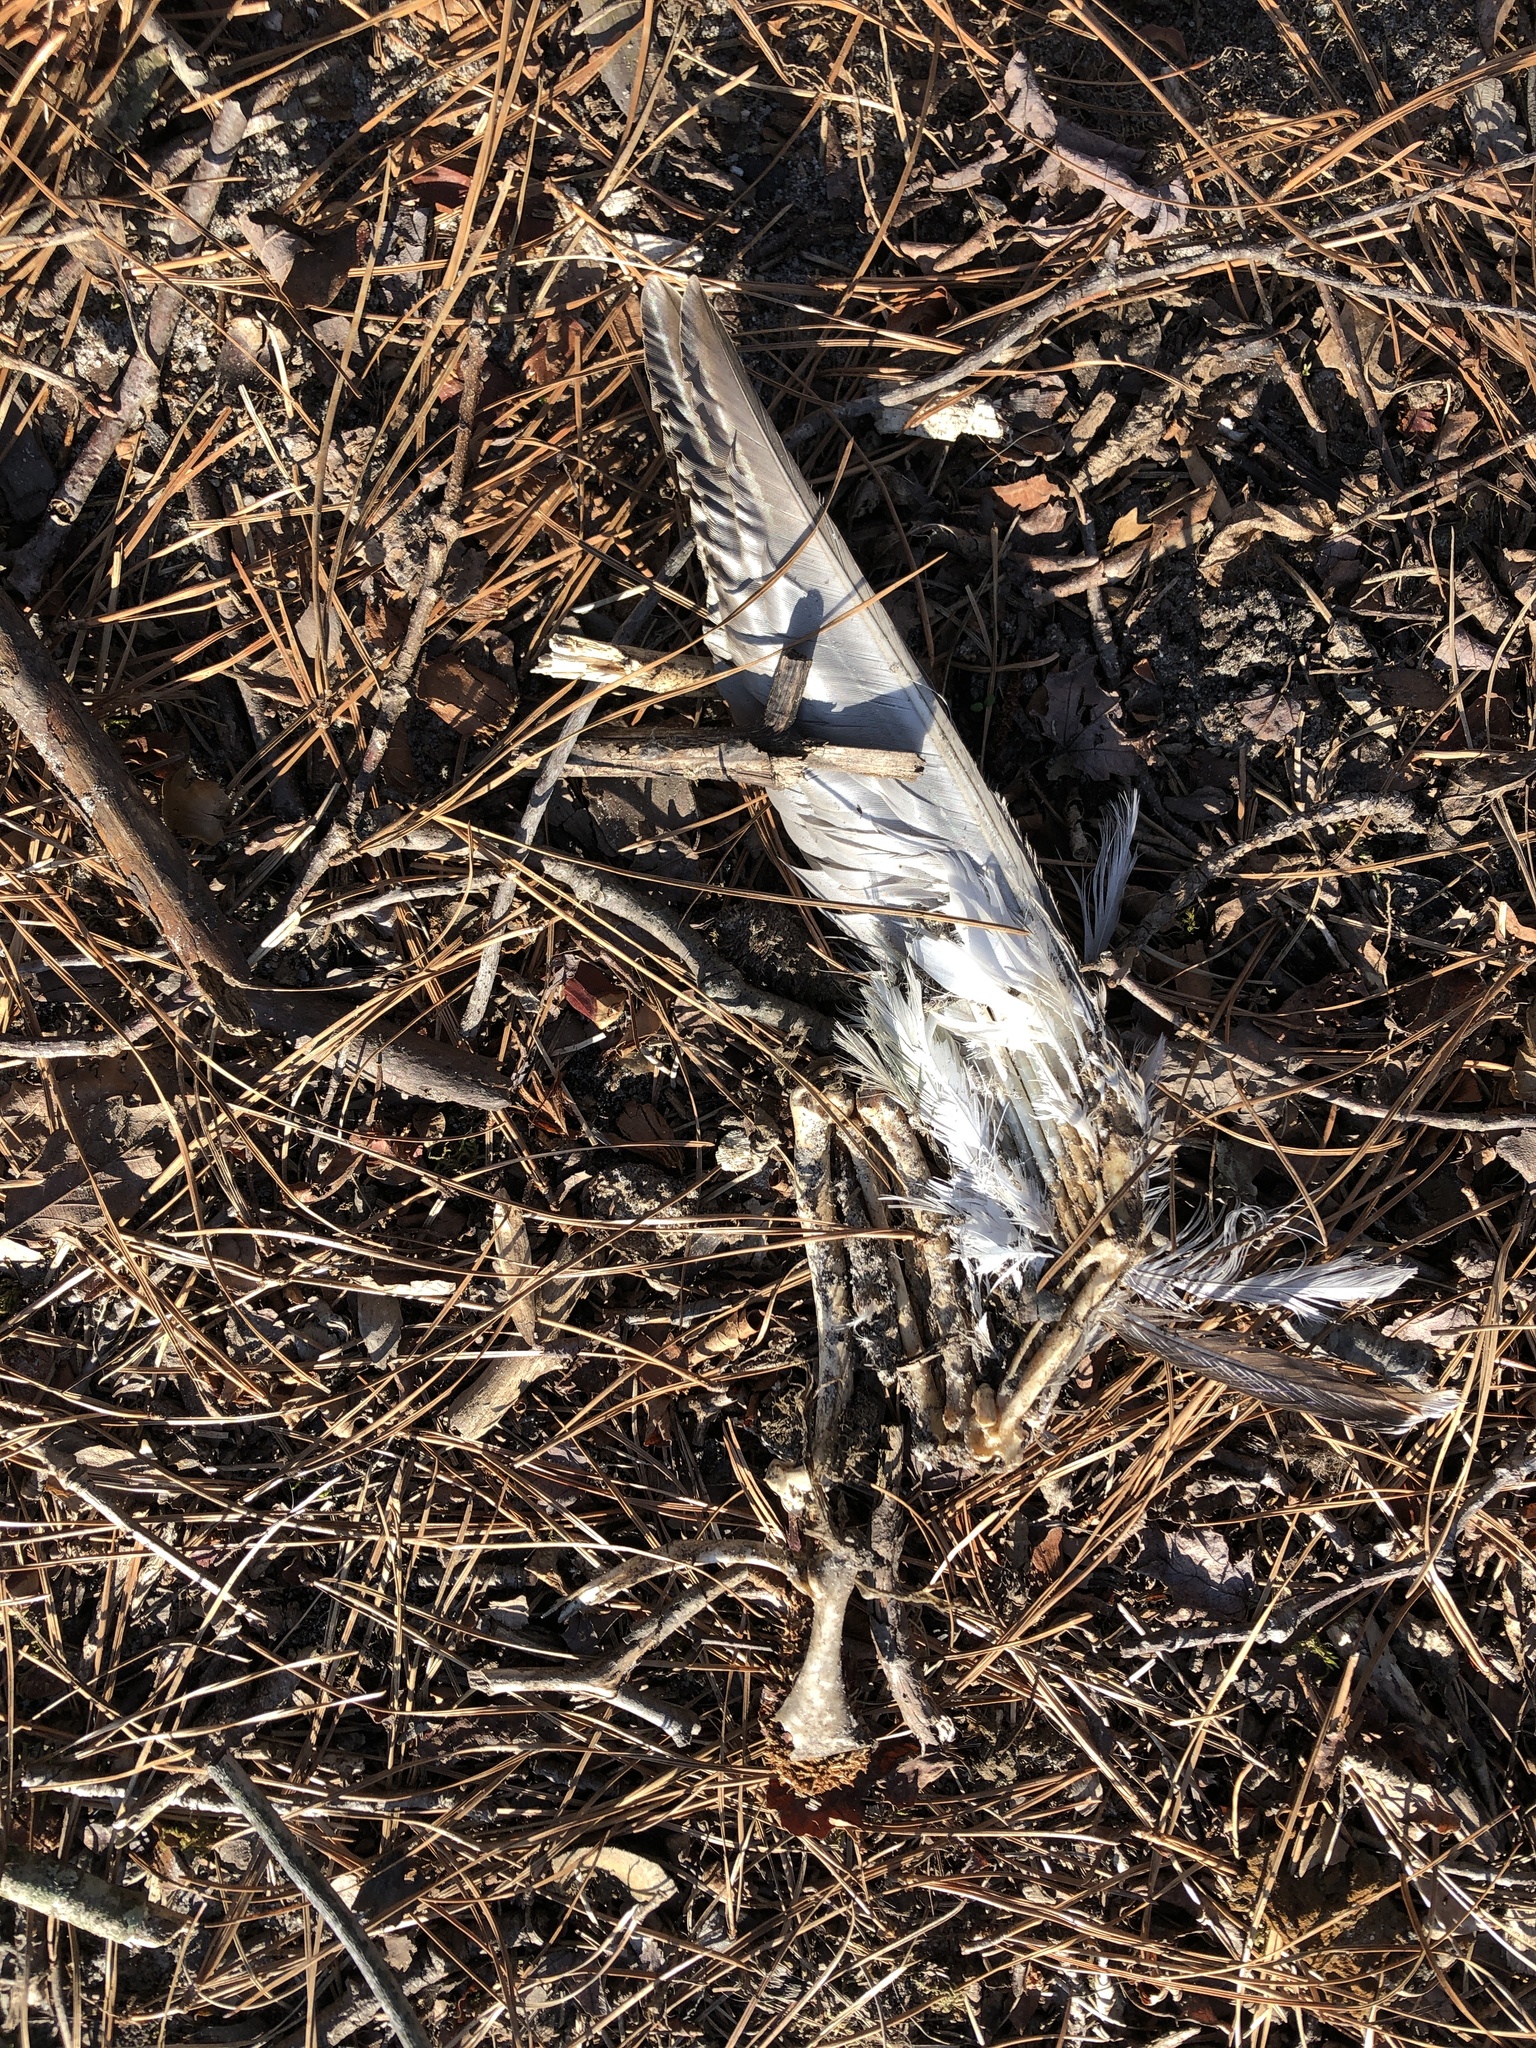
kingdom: Animalia
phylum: Chordata
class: Aves
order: Anseriformes
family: Anatidae
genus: Branta
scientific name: Branta canadensis
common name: Canada goose
